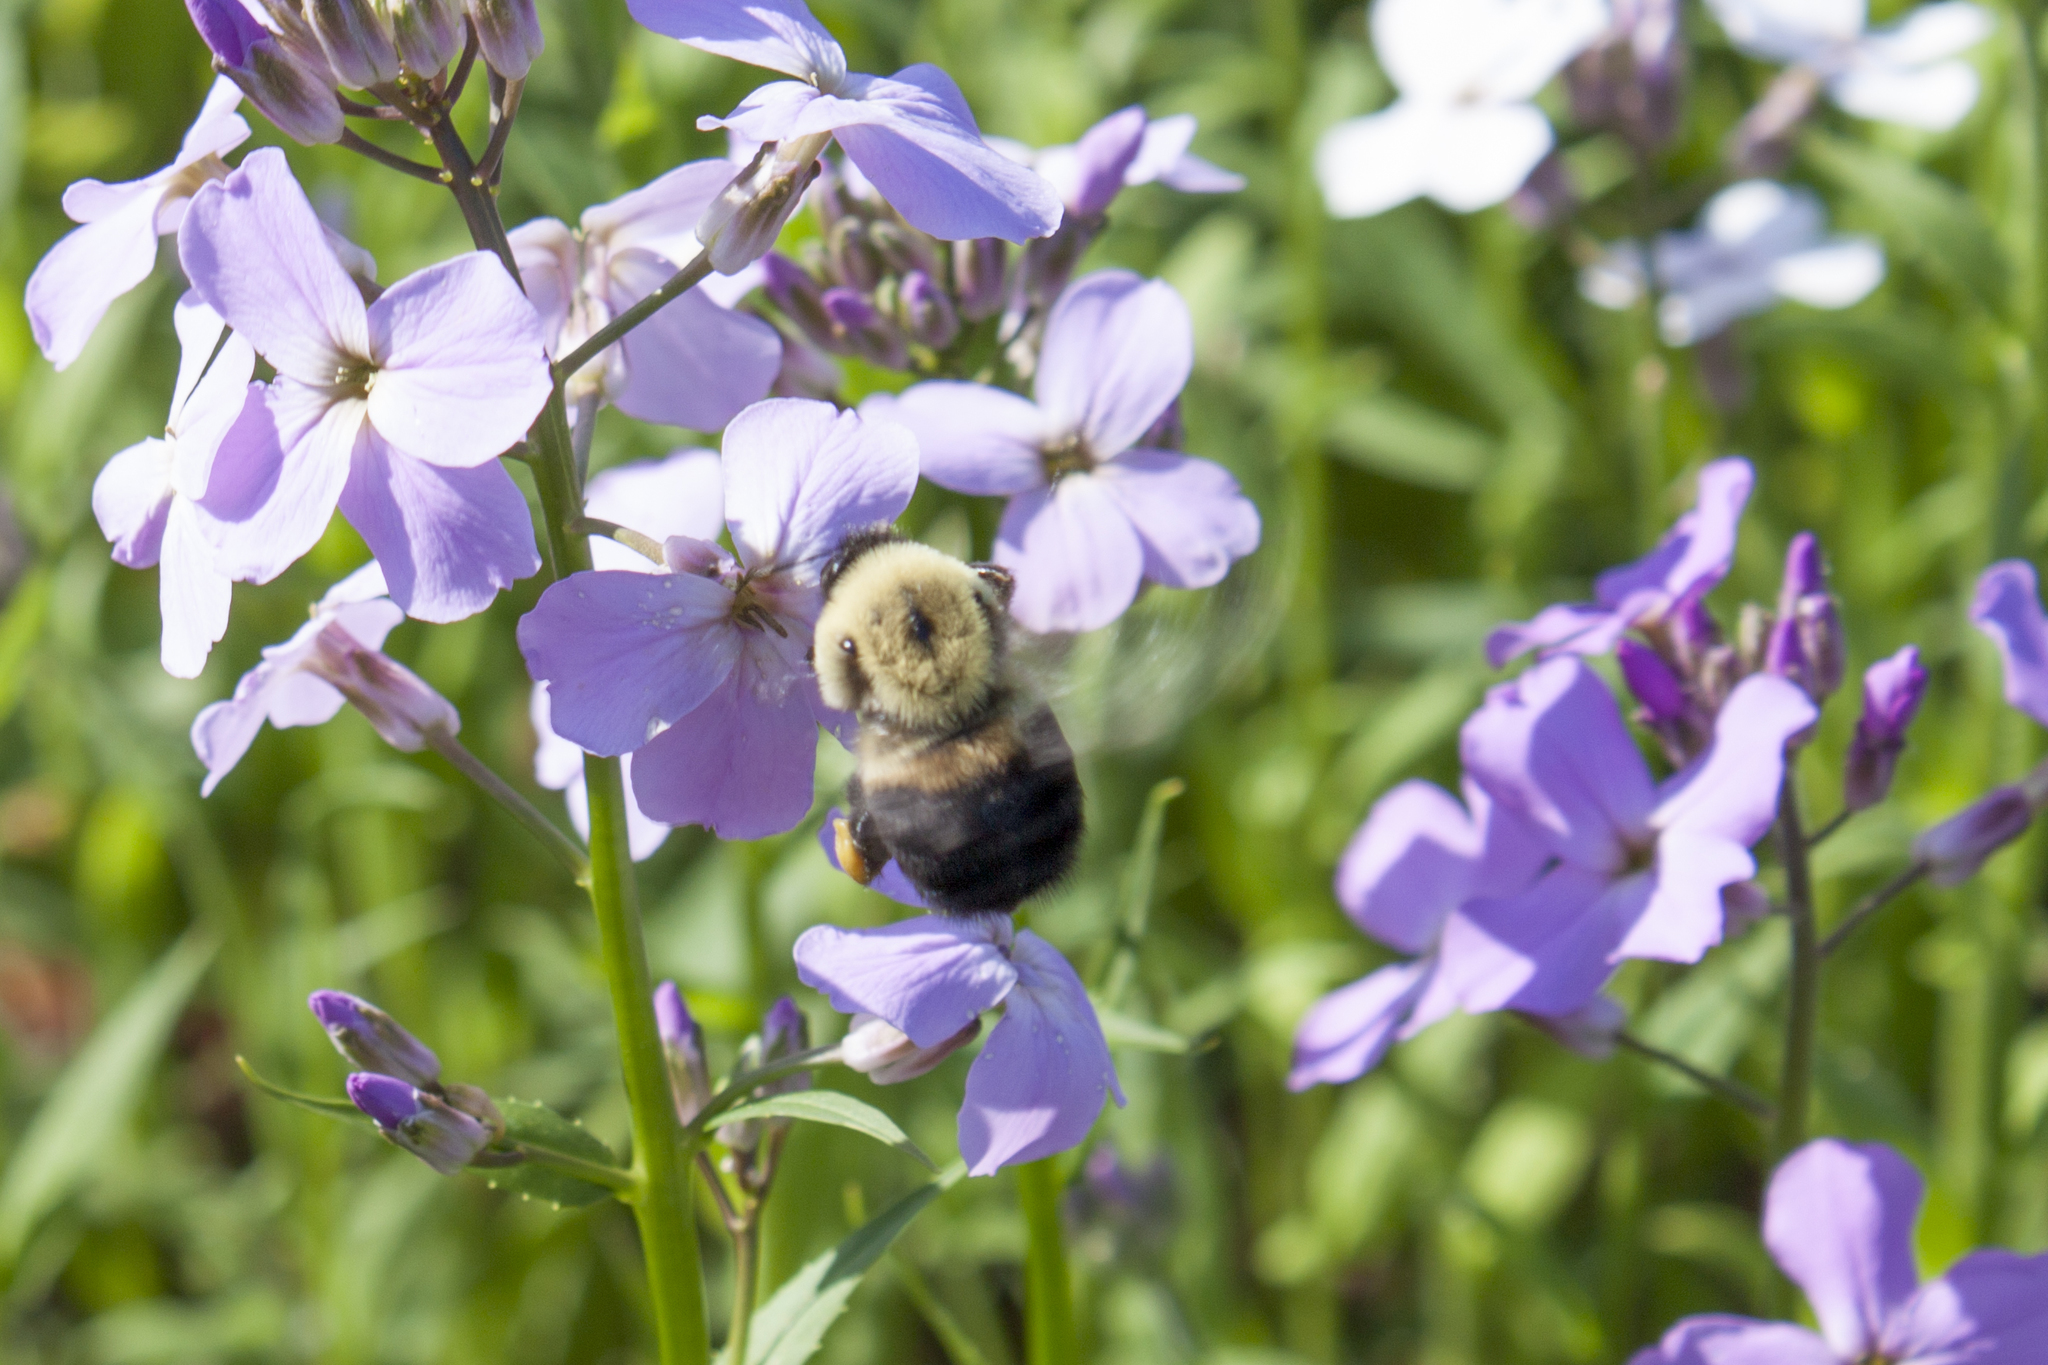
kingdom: Animalia
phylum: Arthropoda
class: Insecta
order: Hymenoptera
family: Apidae
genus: Bombus
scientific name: Bombus griseocollis
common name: Brown-belted bumble bee
